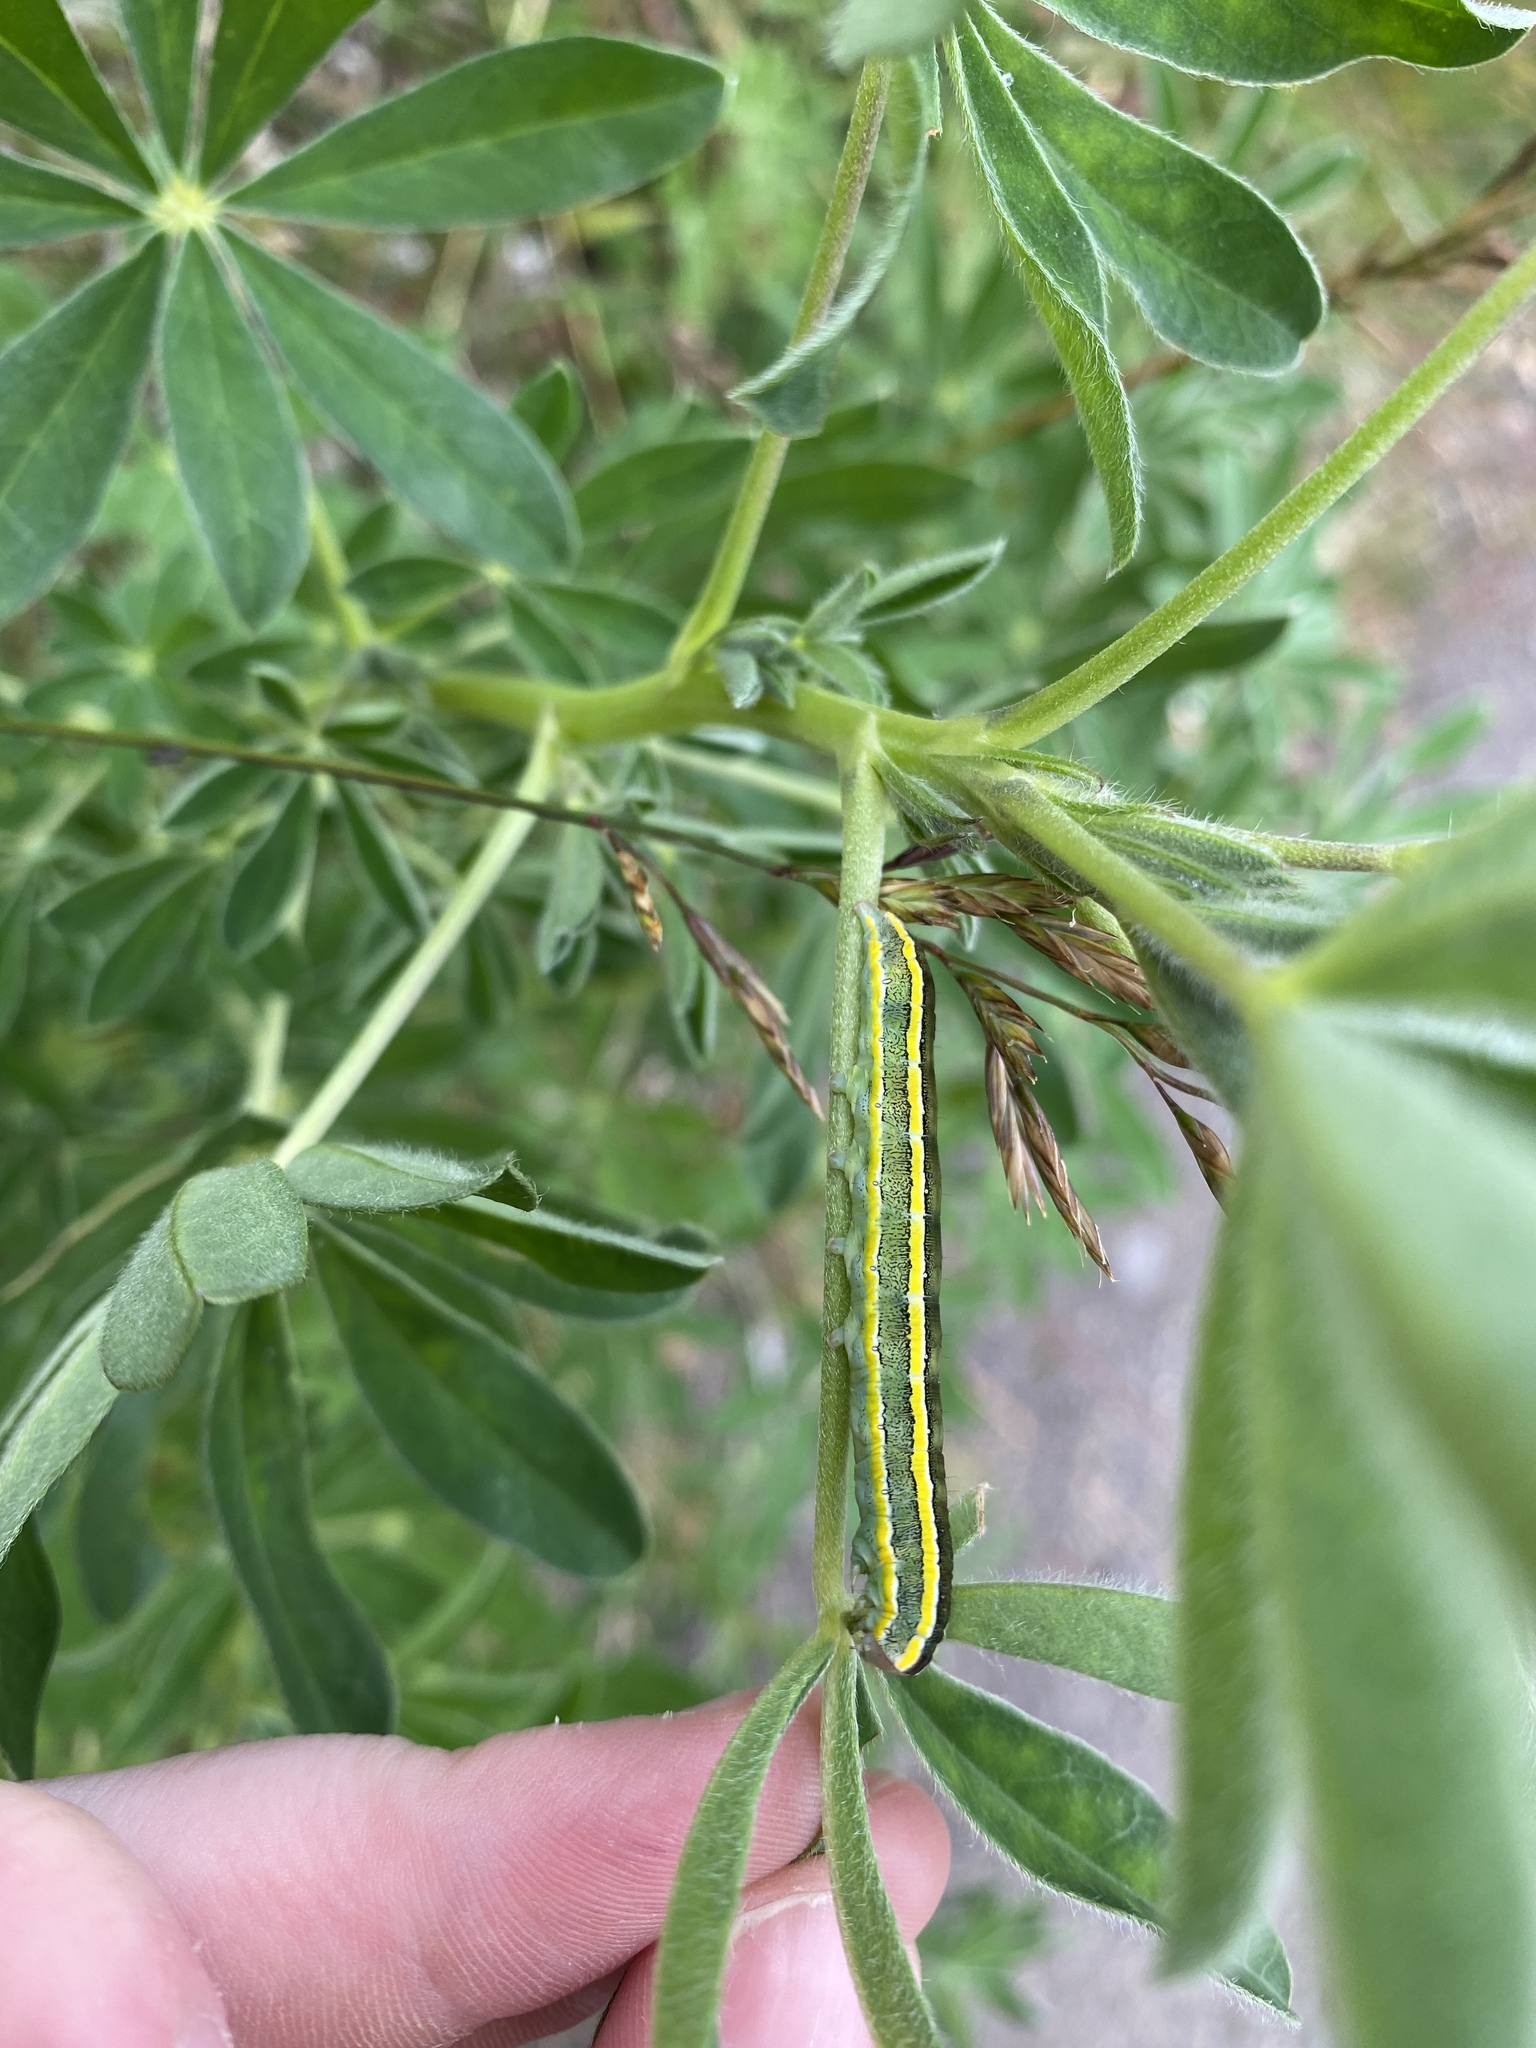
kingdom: Animalia
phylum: Arthropoda
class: Insecta
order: Lepidoptera
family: Noctuidae
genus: Ceramica
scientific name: Ceramica pisi
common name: Broom moth
